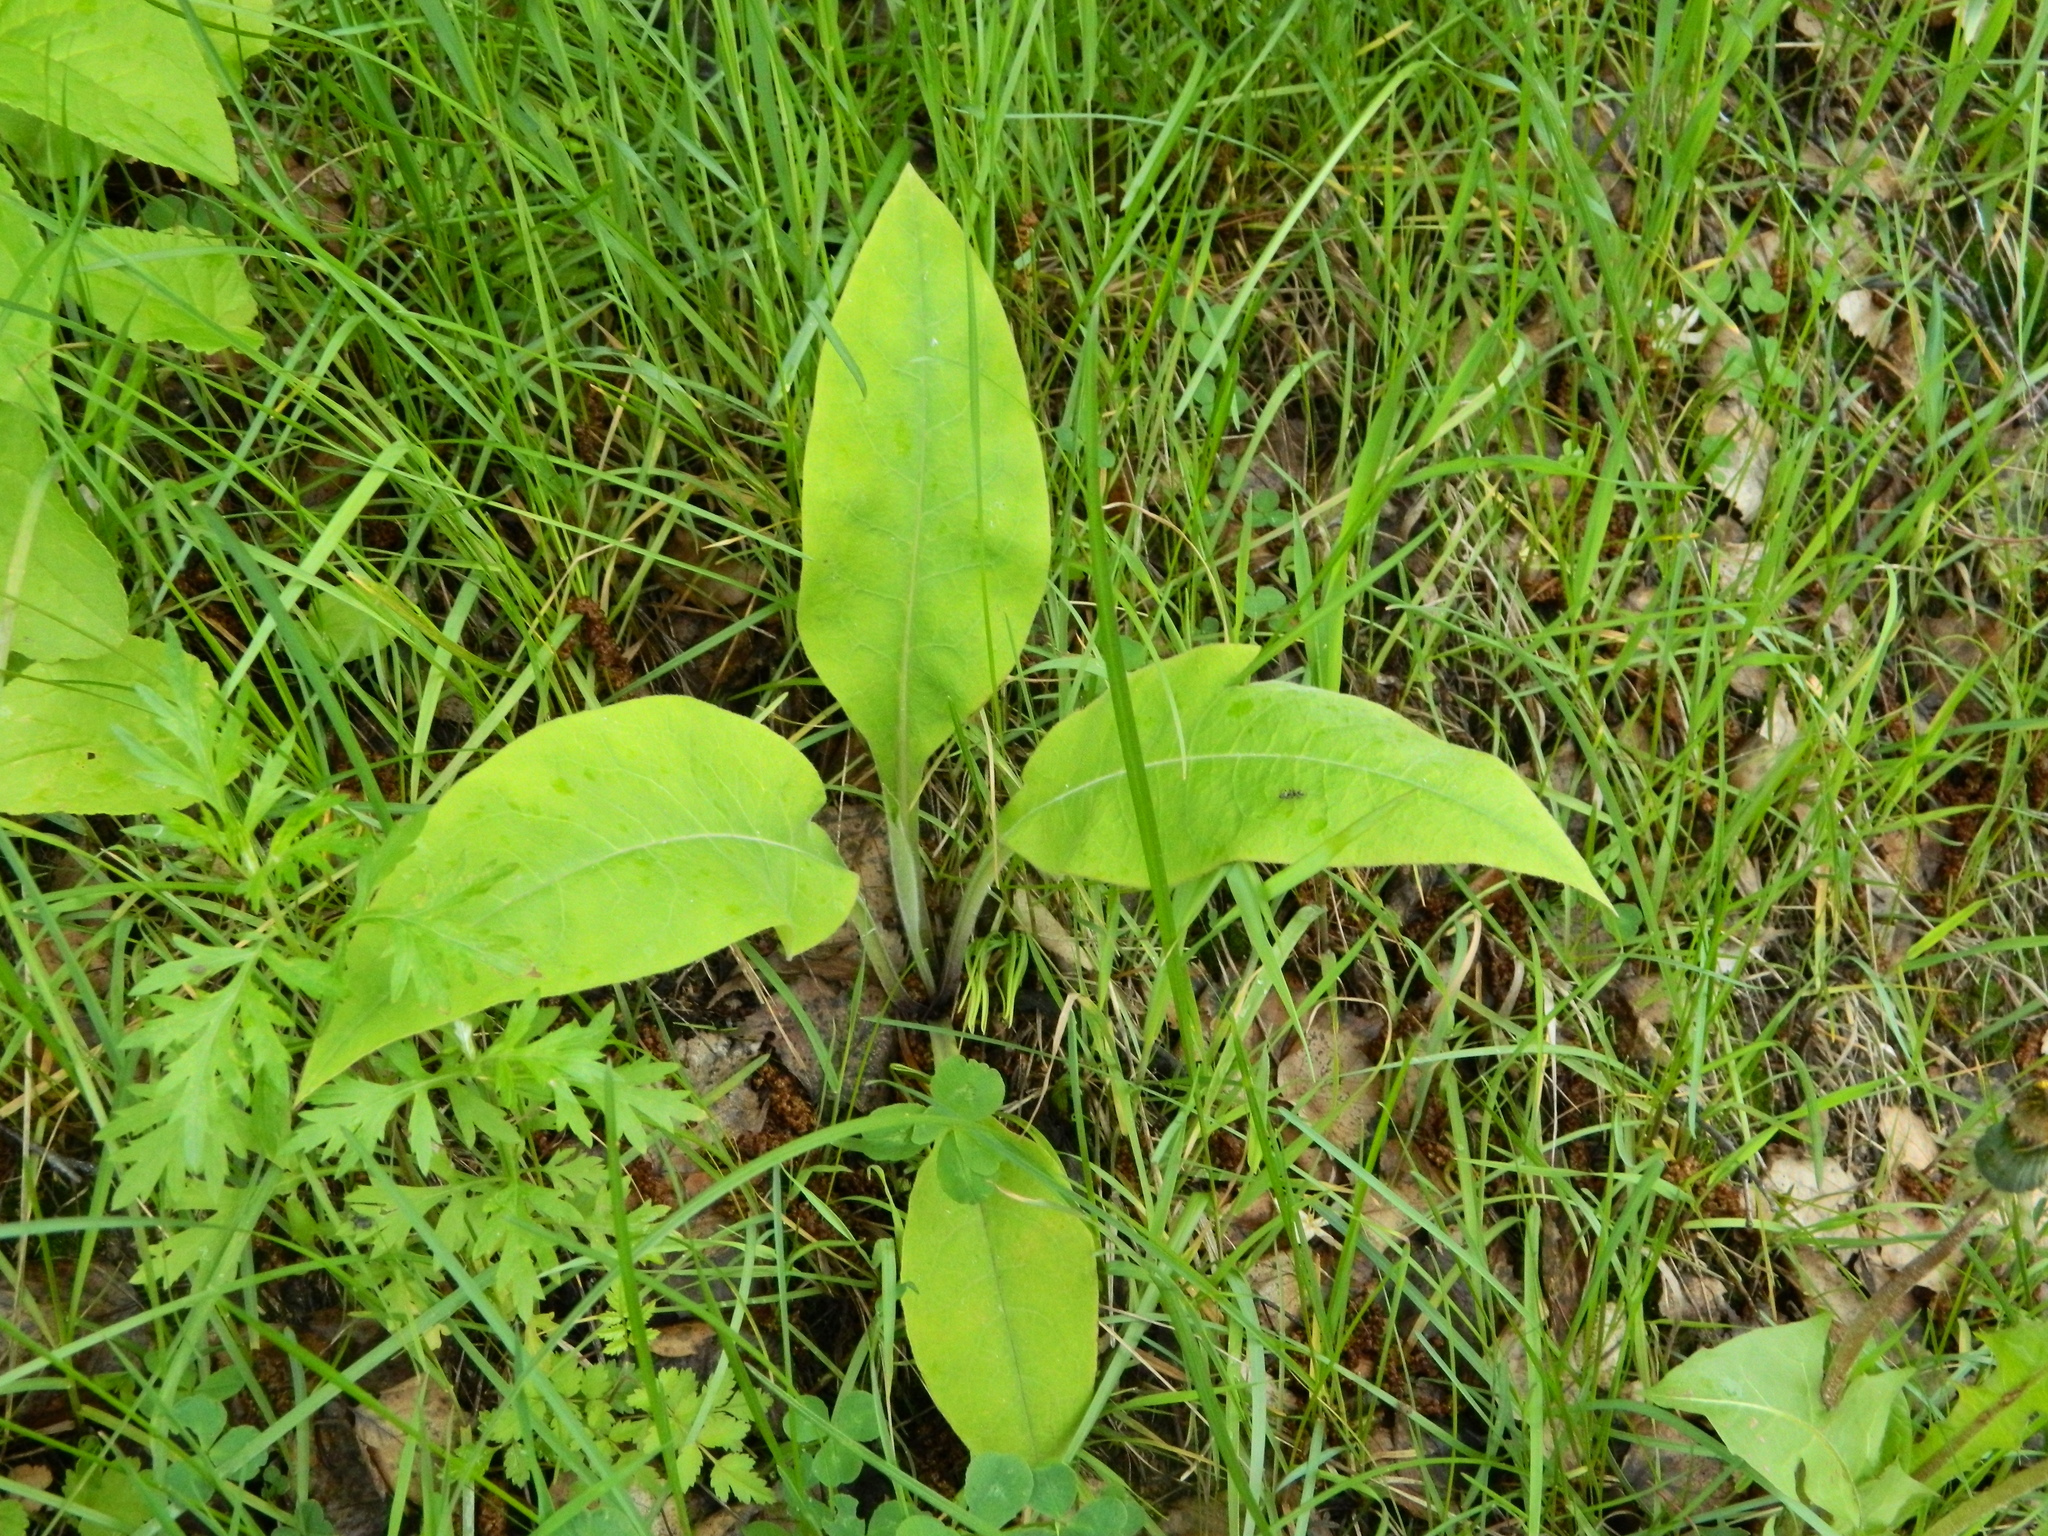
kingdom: Plantae
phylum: Tracheophyta
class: Magnoliopsida
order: Boraginales
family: Boraginaceae
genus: Pulmonaria
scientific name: Pulmonaria mollis
